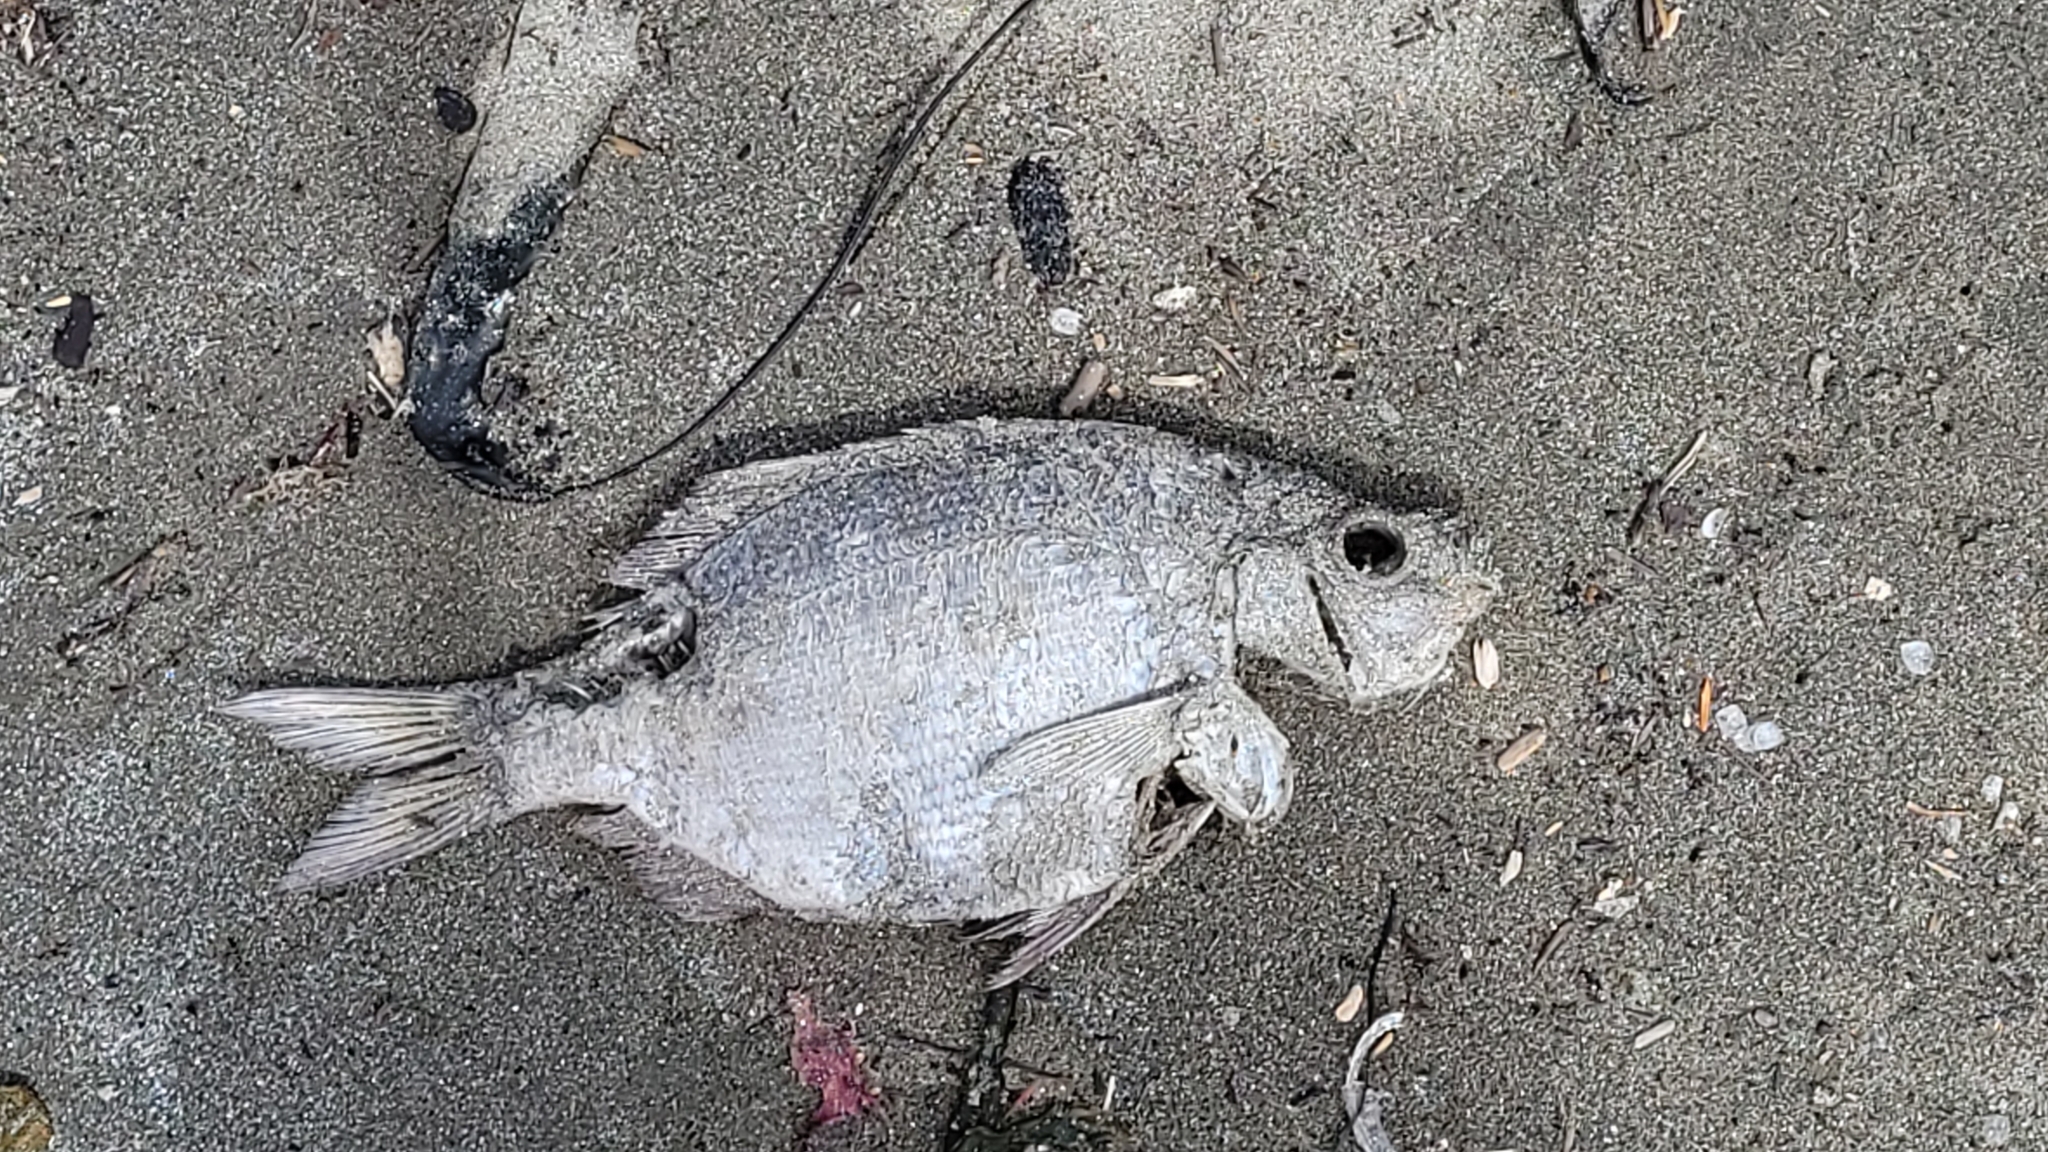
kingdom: Animalia
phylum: Chordata
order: Perciformes
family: Embiotocidae
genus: Embiotoca
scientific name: Embiotoca lateralis
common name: Striped surfperch
